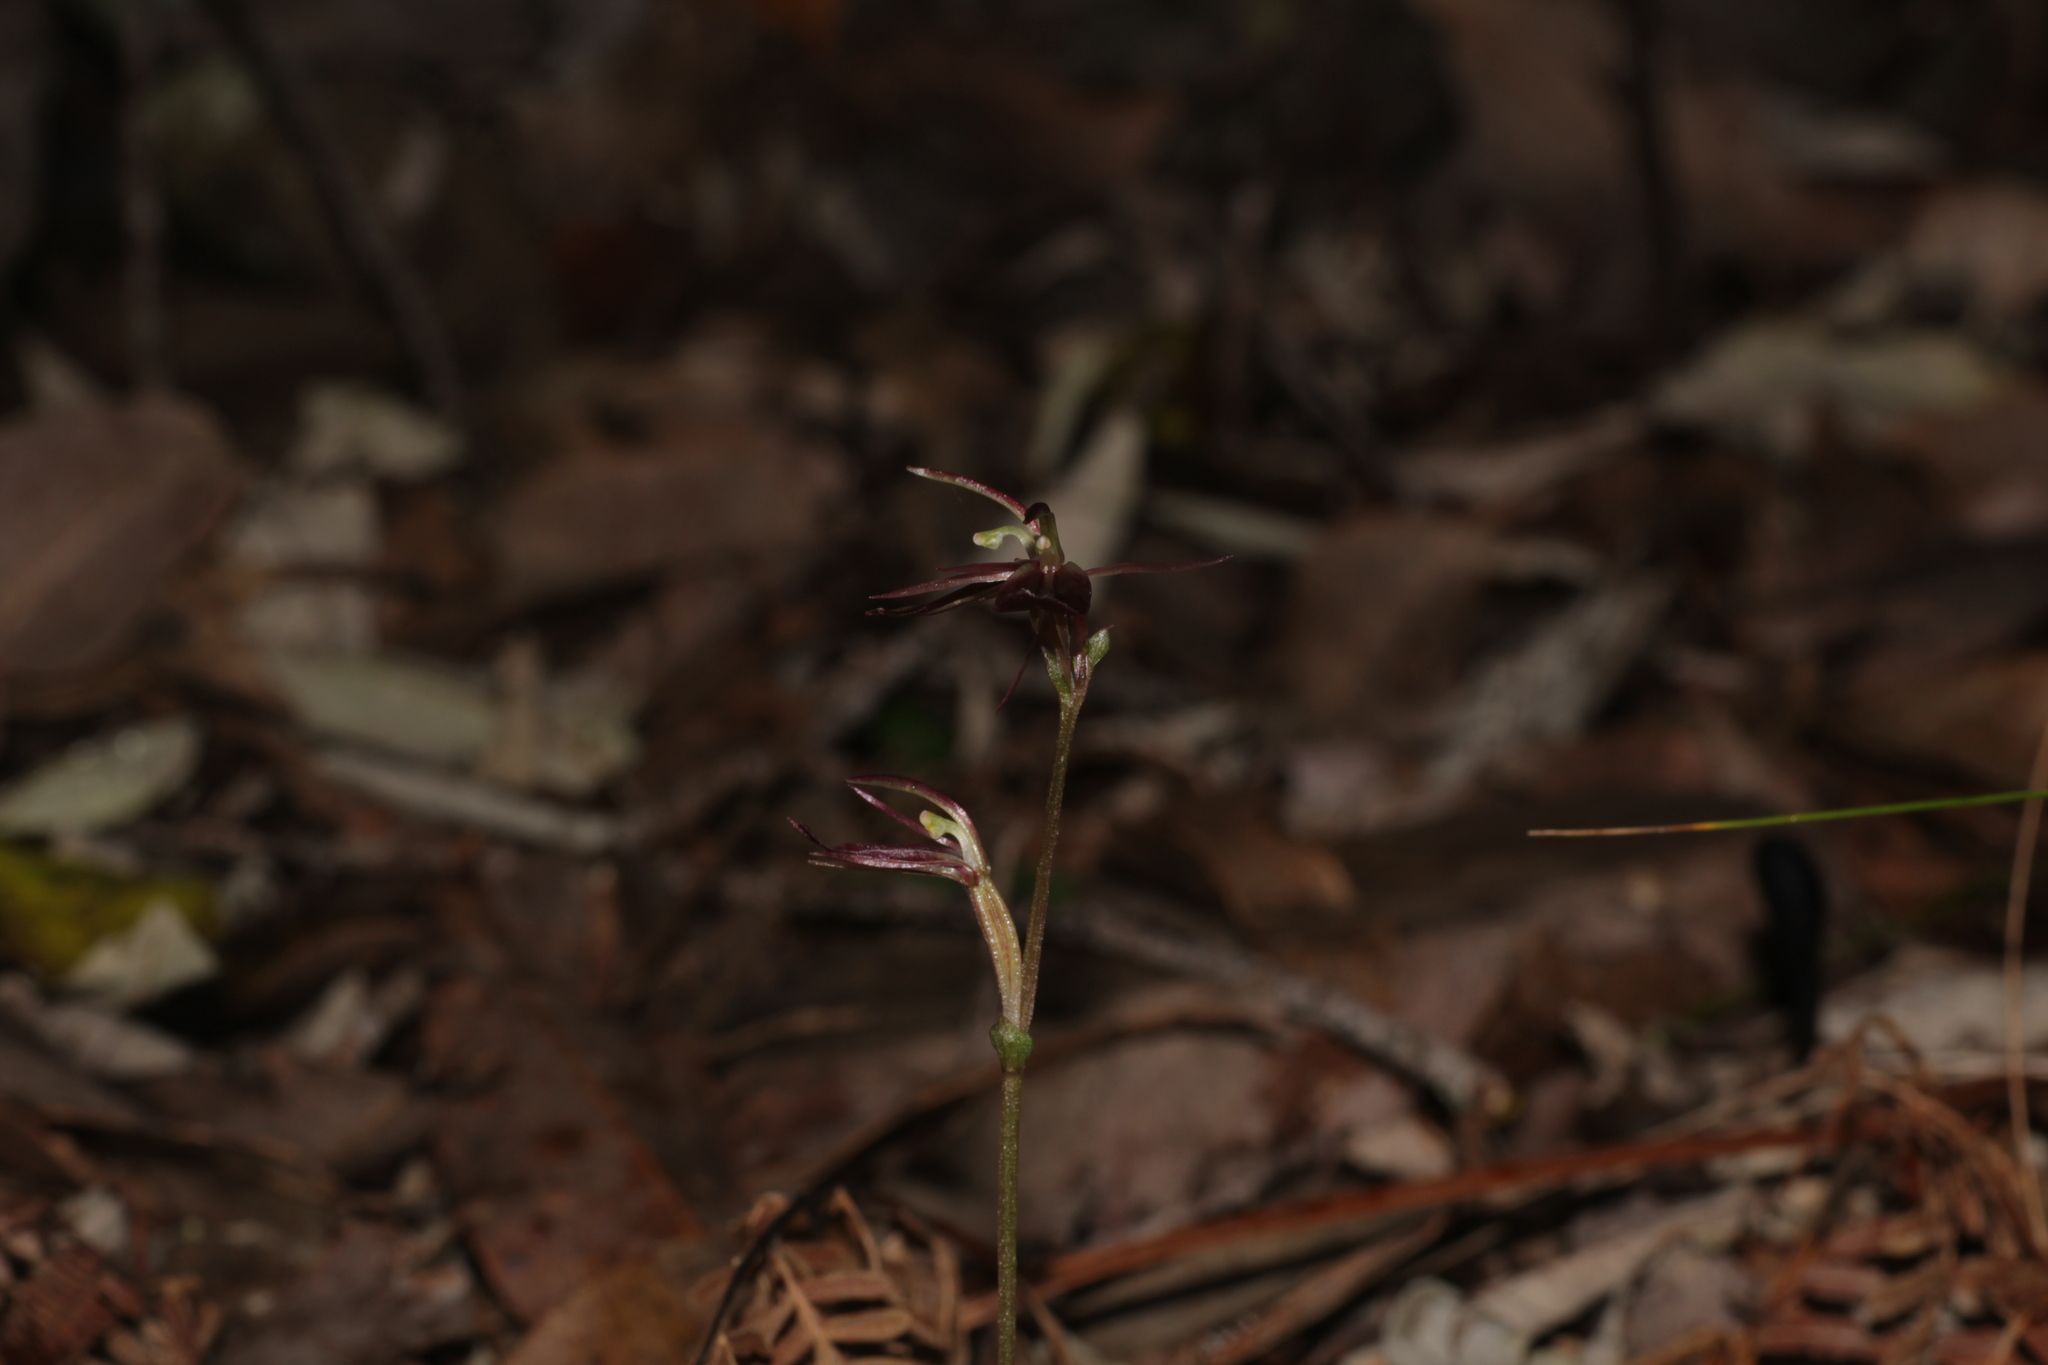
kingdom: Plantae
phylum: Tracheophyta
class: Liliopsida
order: Asparagales
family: Orchidaceae
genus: Cyrtostylis
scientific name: Cyrtostylis robusta
